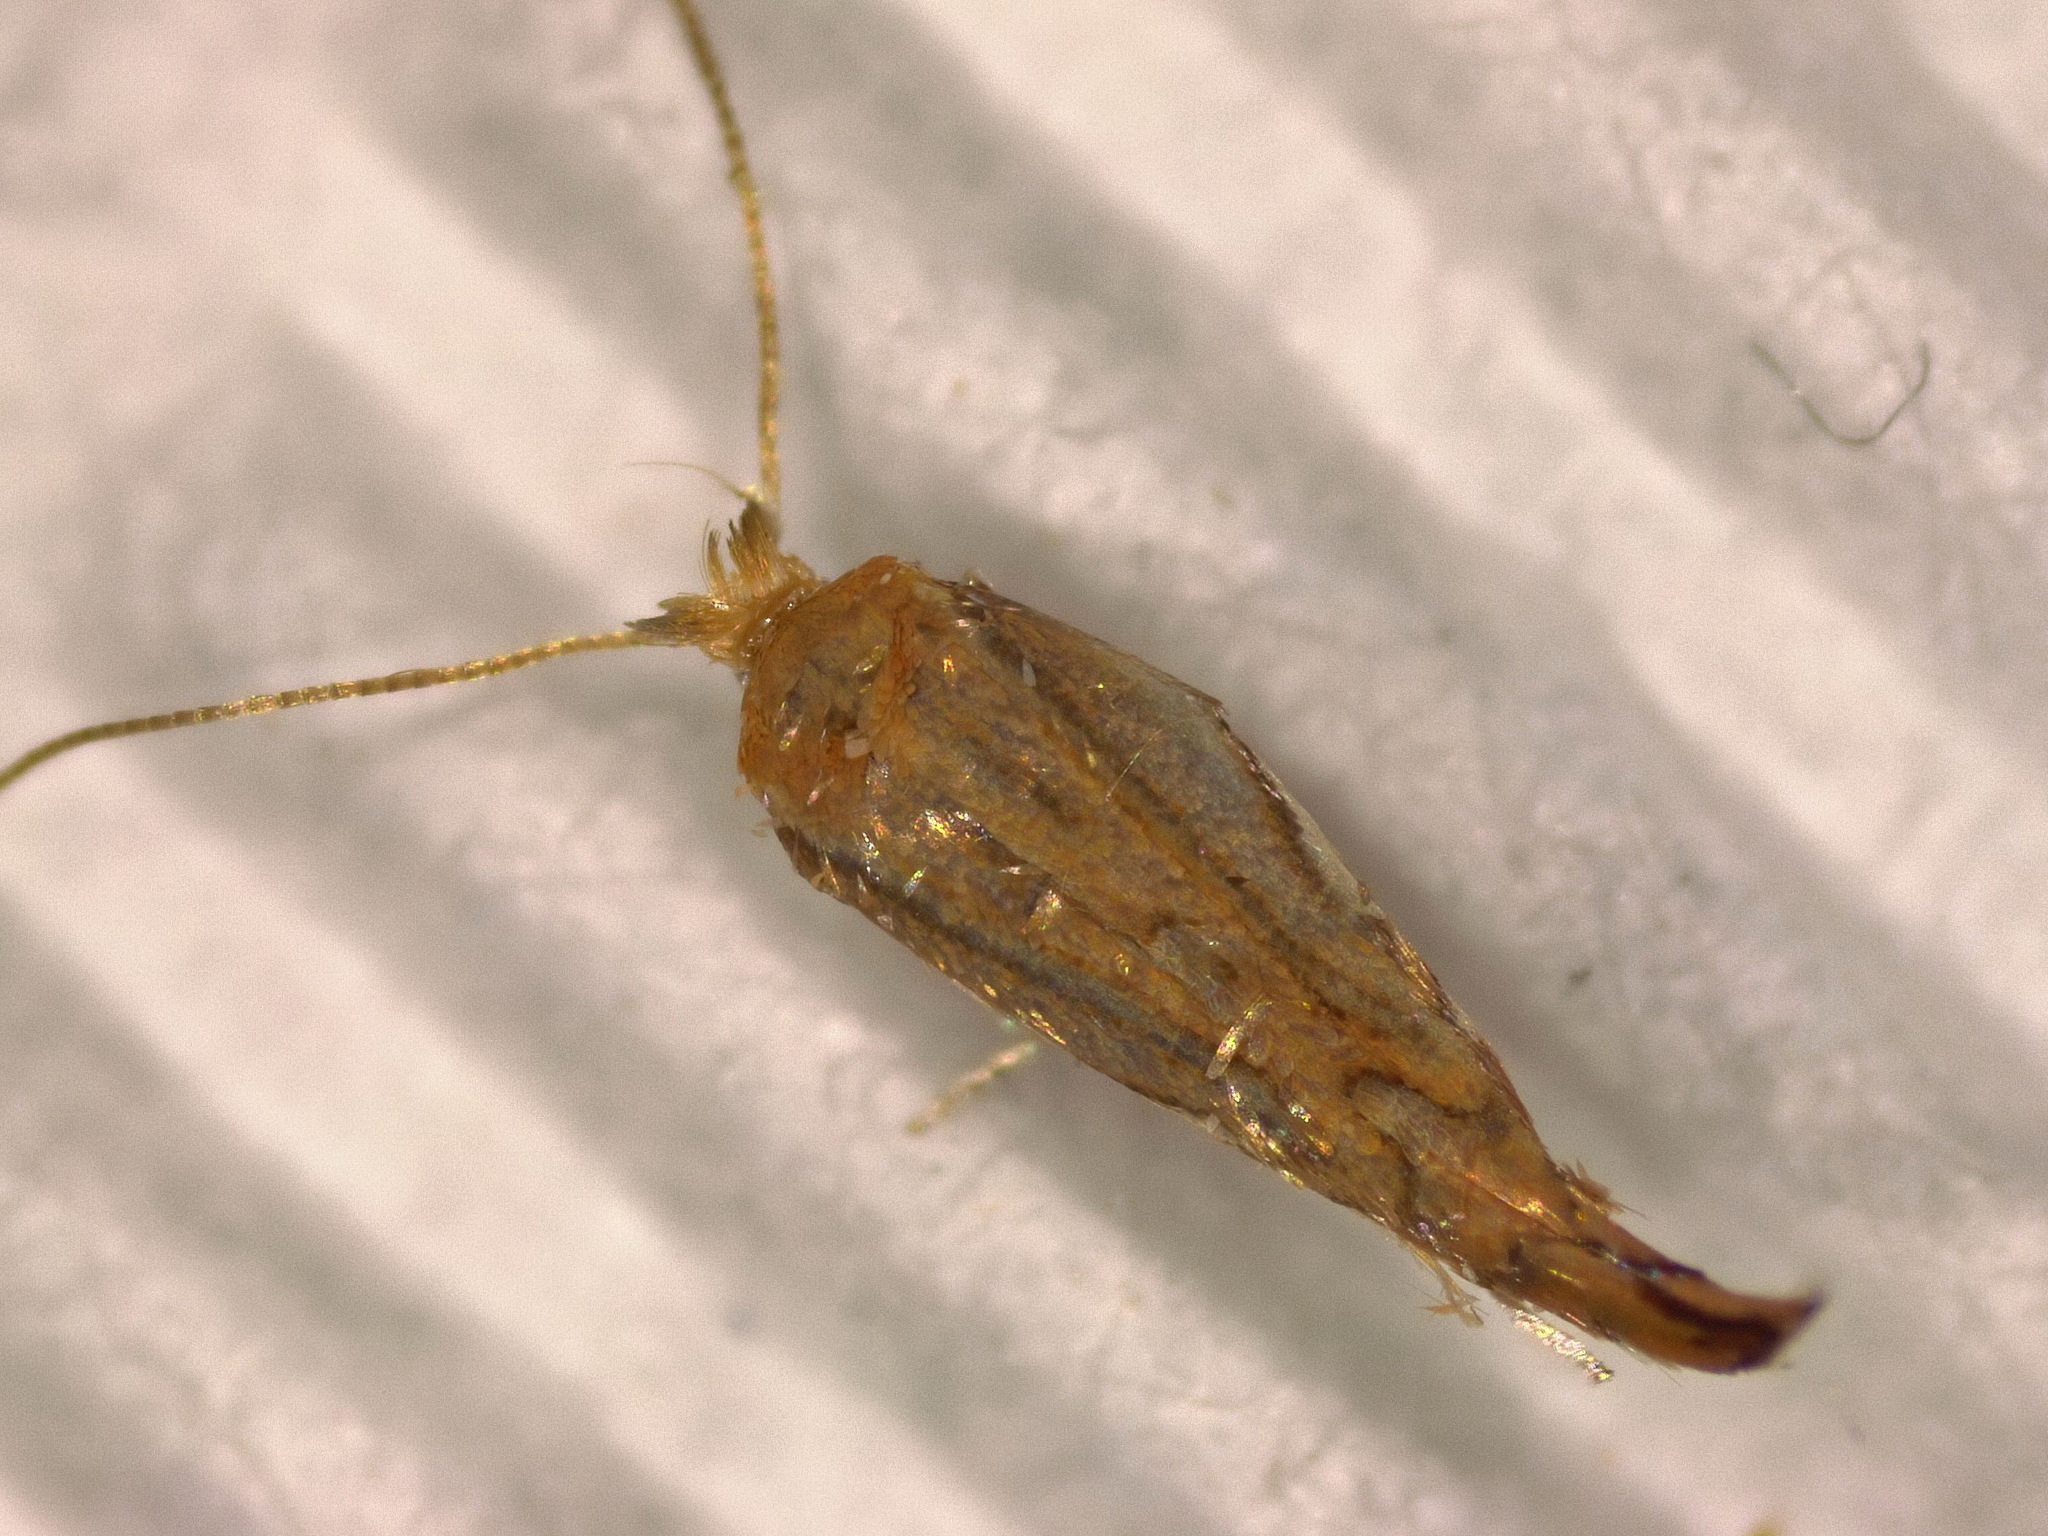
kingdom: Animalia
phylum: Arthropoda
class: Insecta
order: Lepidoptera
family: Gracillariidae
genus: Phyllonorycter
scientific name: Phyllonorycter quercifoliella
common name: Common oak midget
